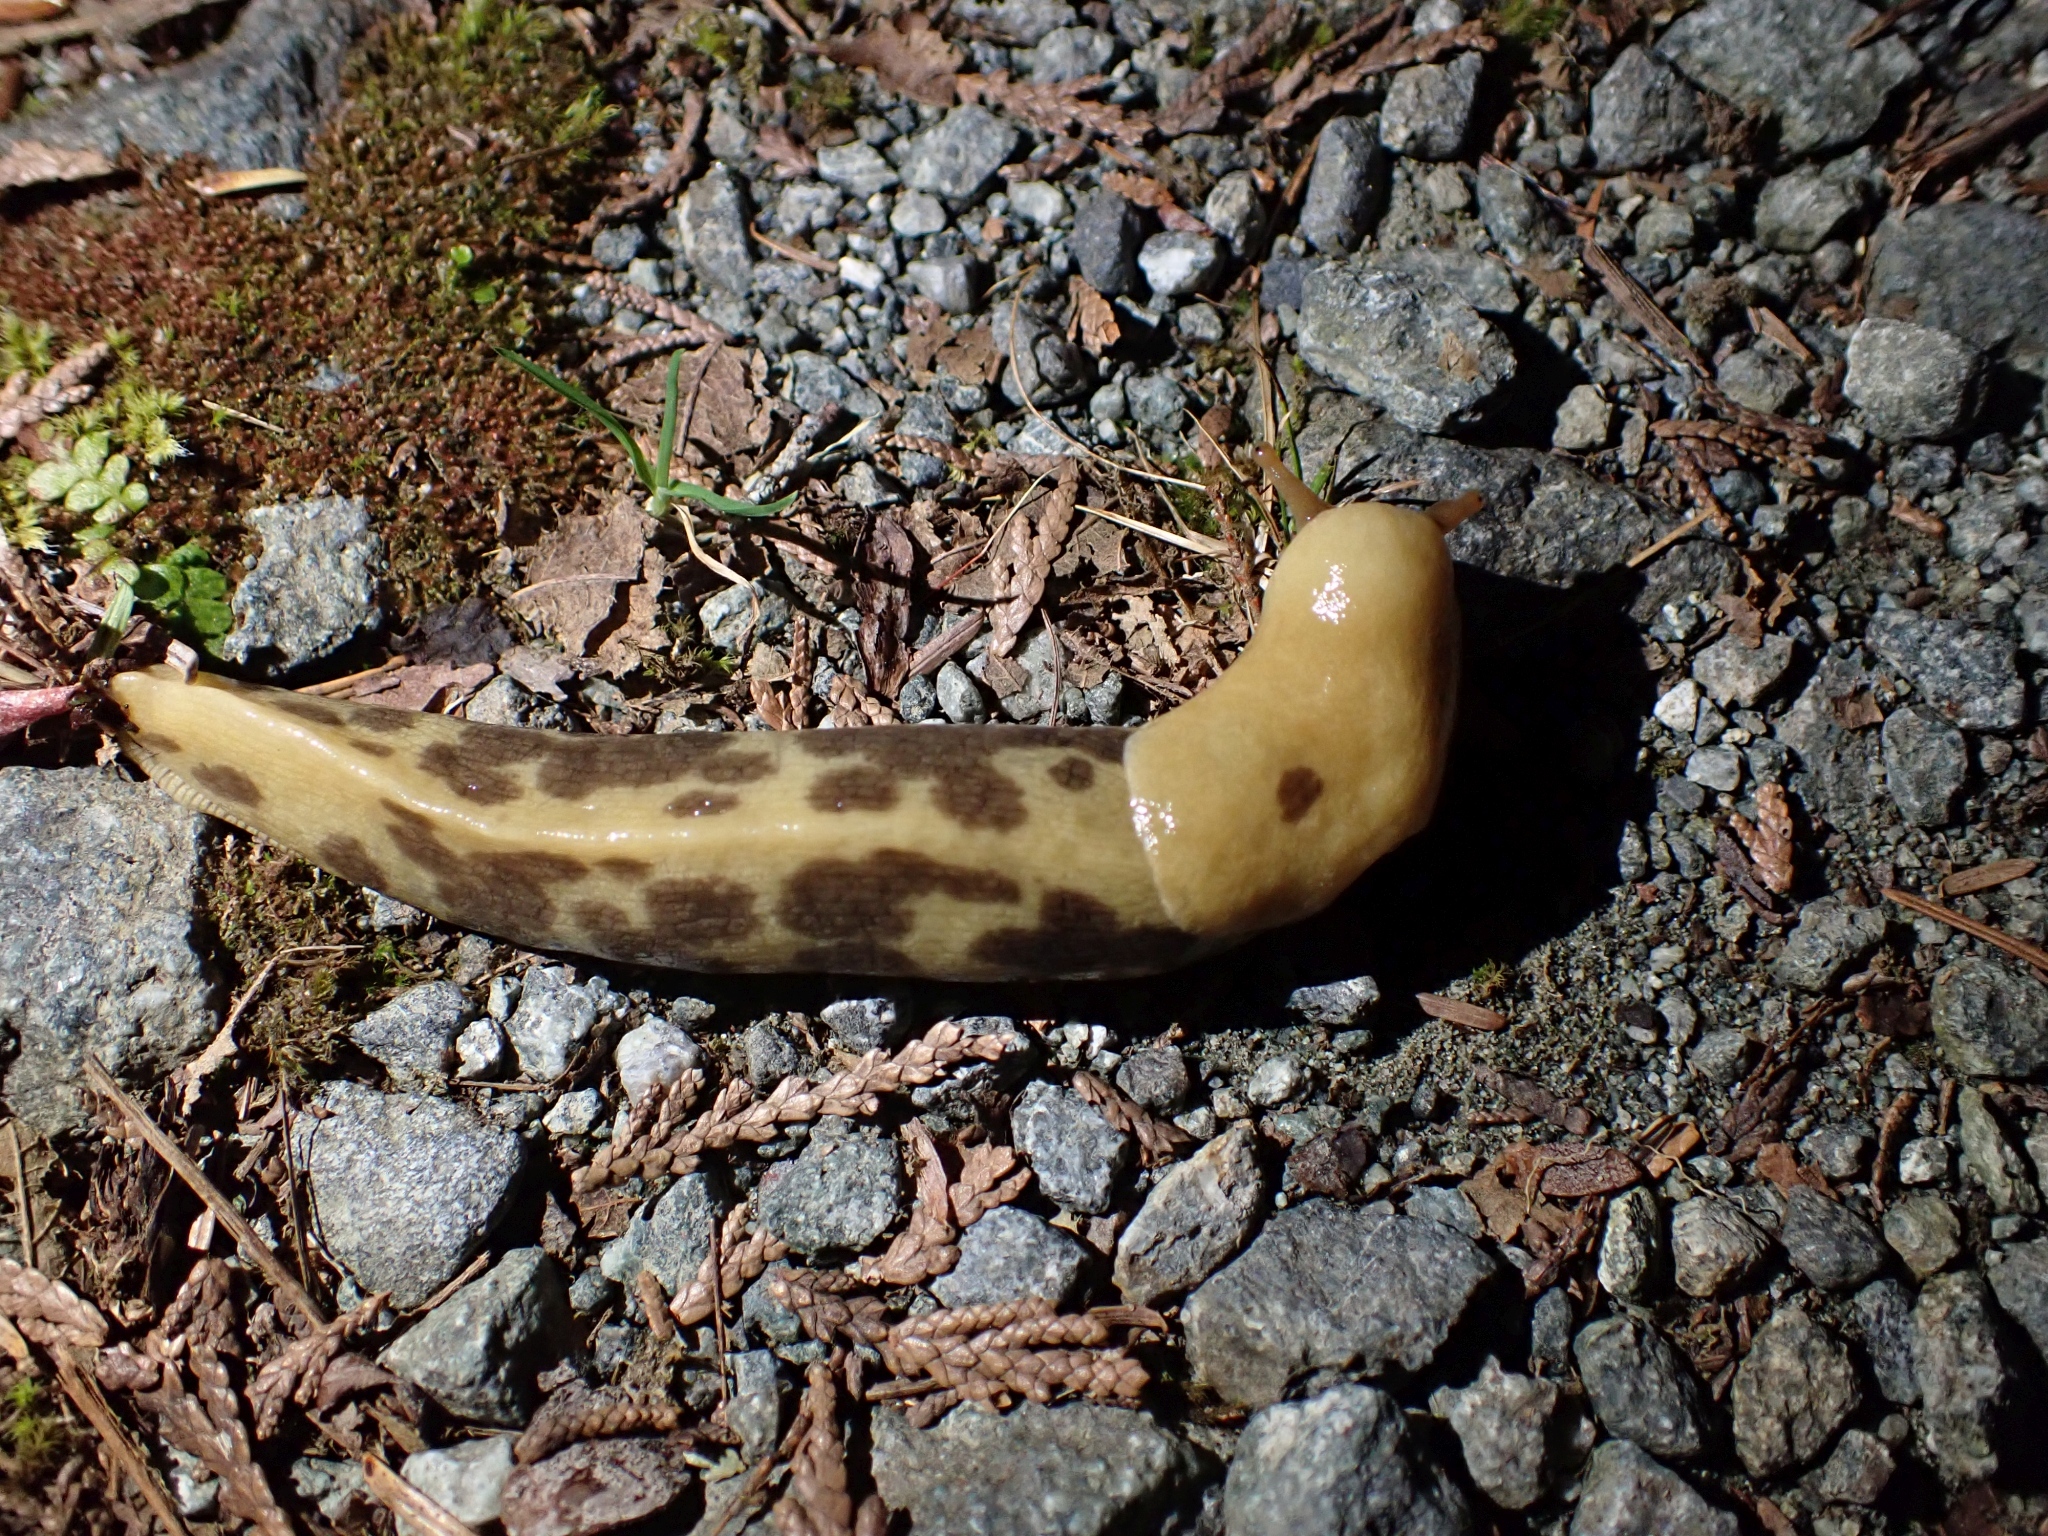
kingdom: Animalia
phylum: Mollusca
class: Gastropoda
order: Stylommatophora
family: Ariolimacidae
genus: Ariolimax
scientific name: Ariolimax columbianus
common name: Pacific banana slug
